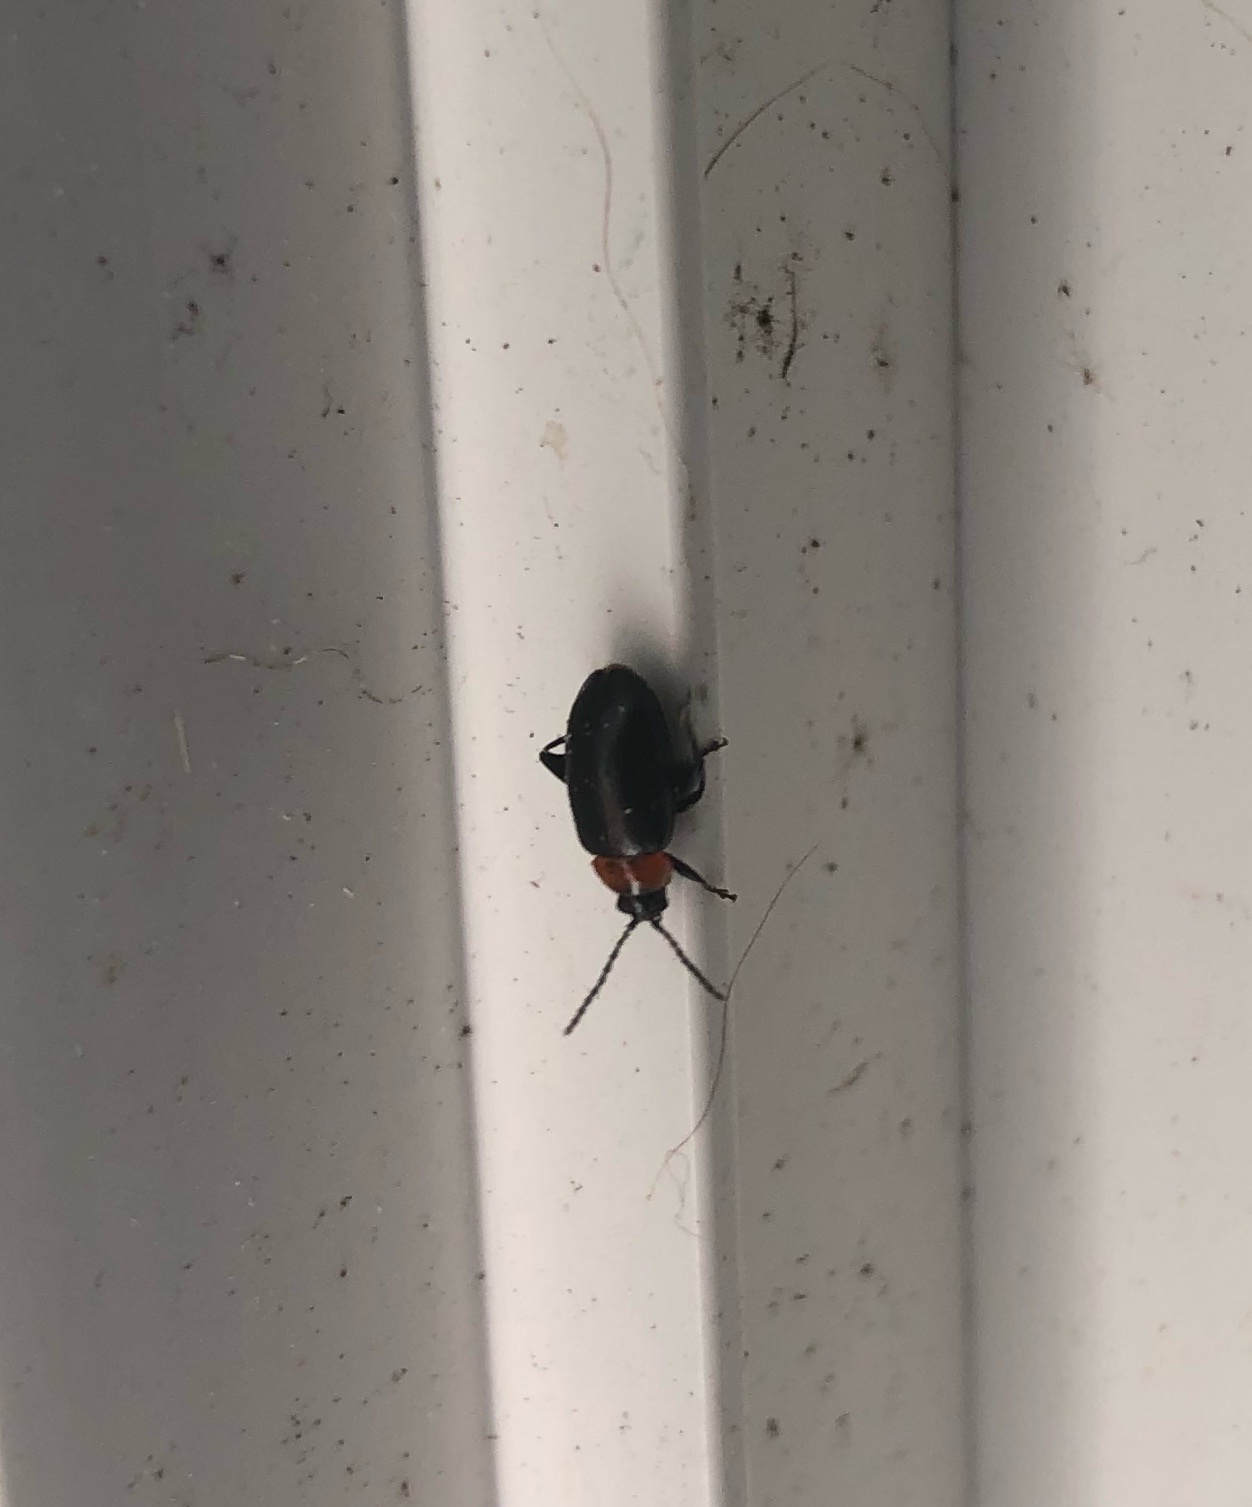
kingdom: Animalia
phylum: Arthropoda
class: Insecta
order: Coleoptera
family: Chrysomelidae
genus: Disonycha
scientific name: Disonycha xanthomelas
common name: Spinach flea beetle
